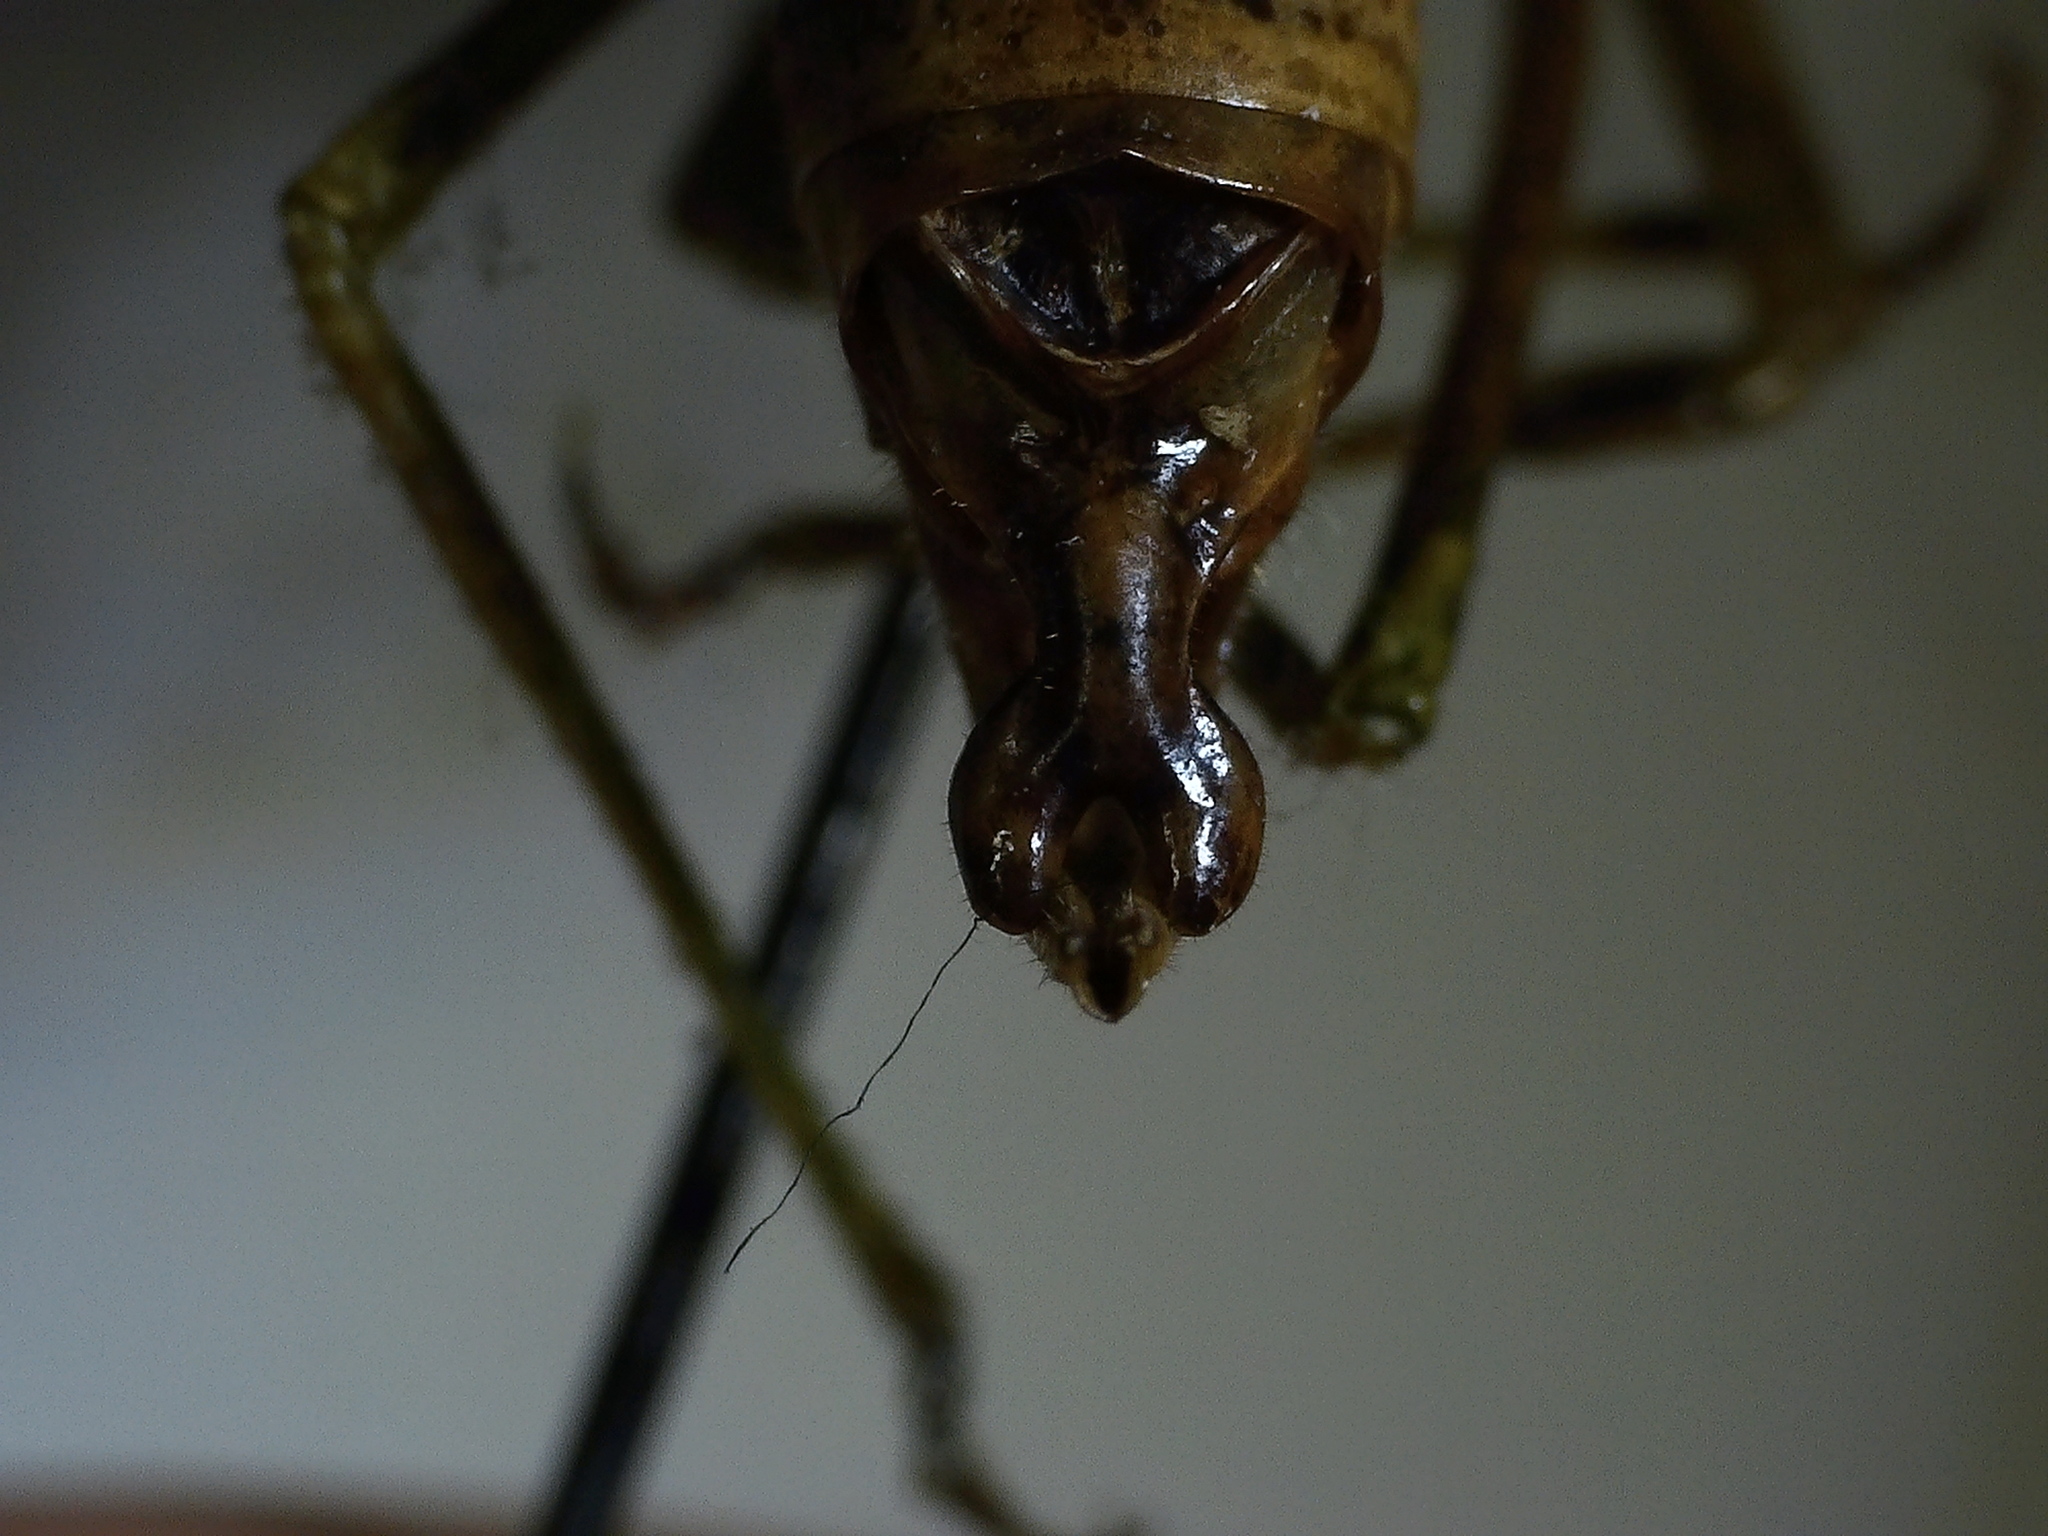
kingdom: Animalia
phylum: Arthropoda
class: Insecta
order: Orthoptera
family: Tettigoniidae
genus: Scudderia
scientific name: Scudderia furcata
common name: Fork-tailed bush katydid
